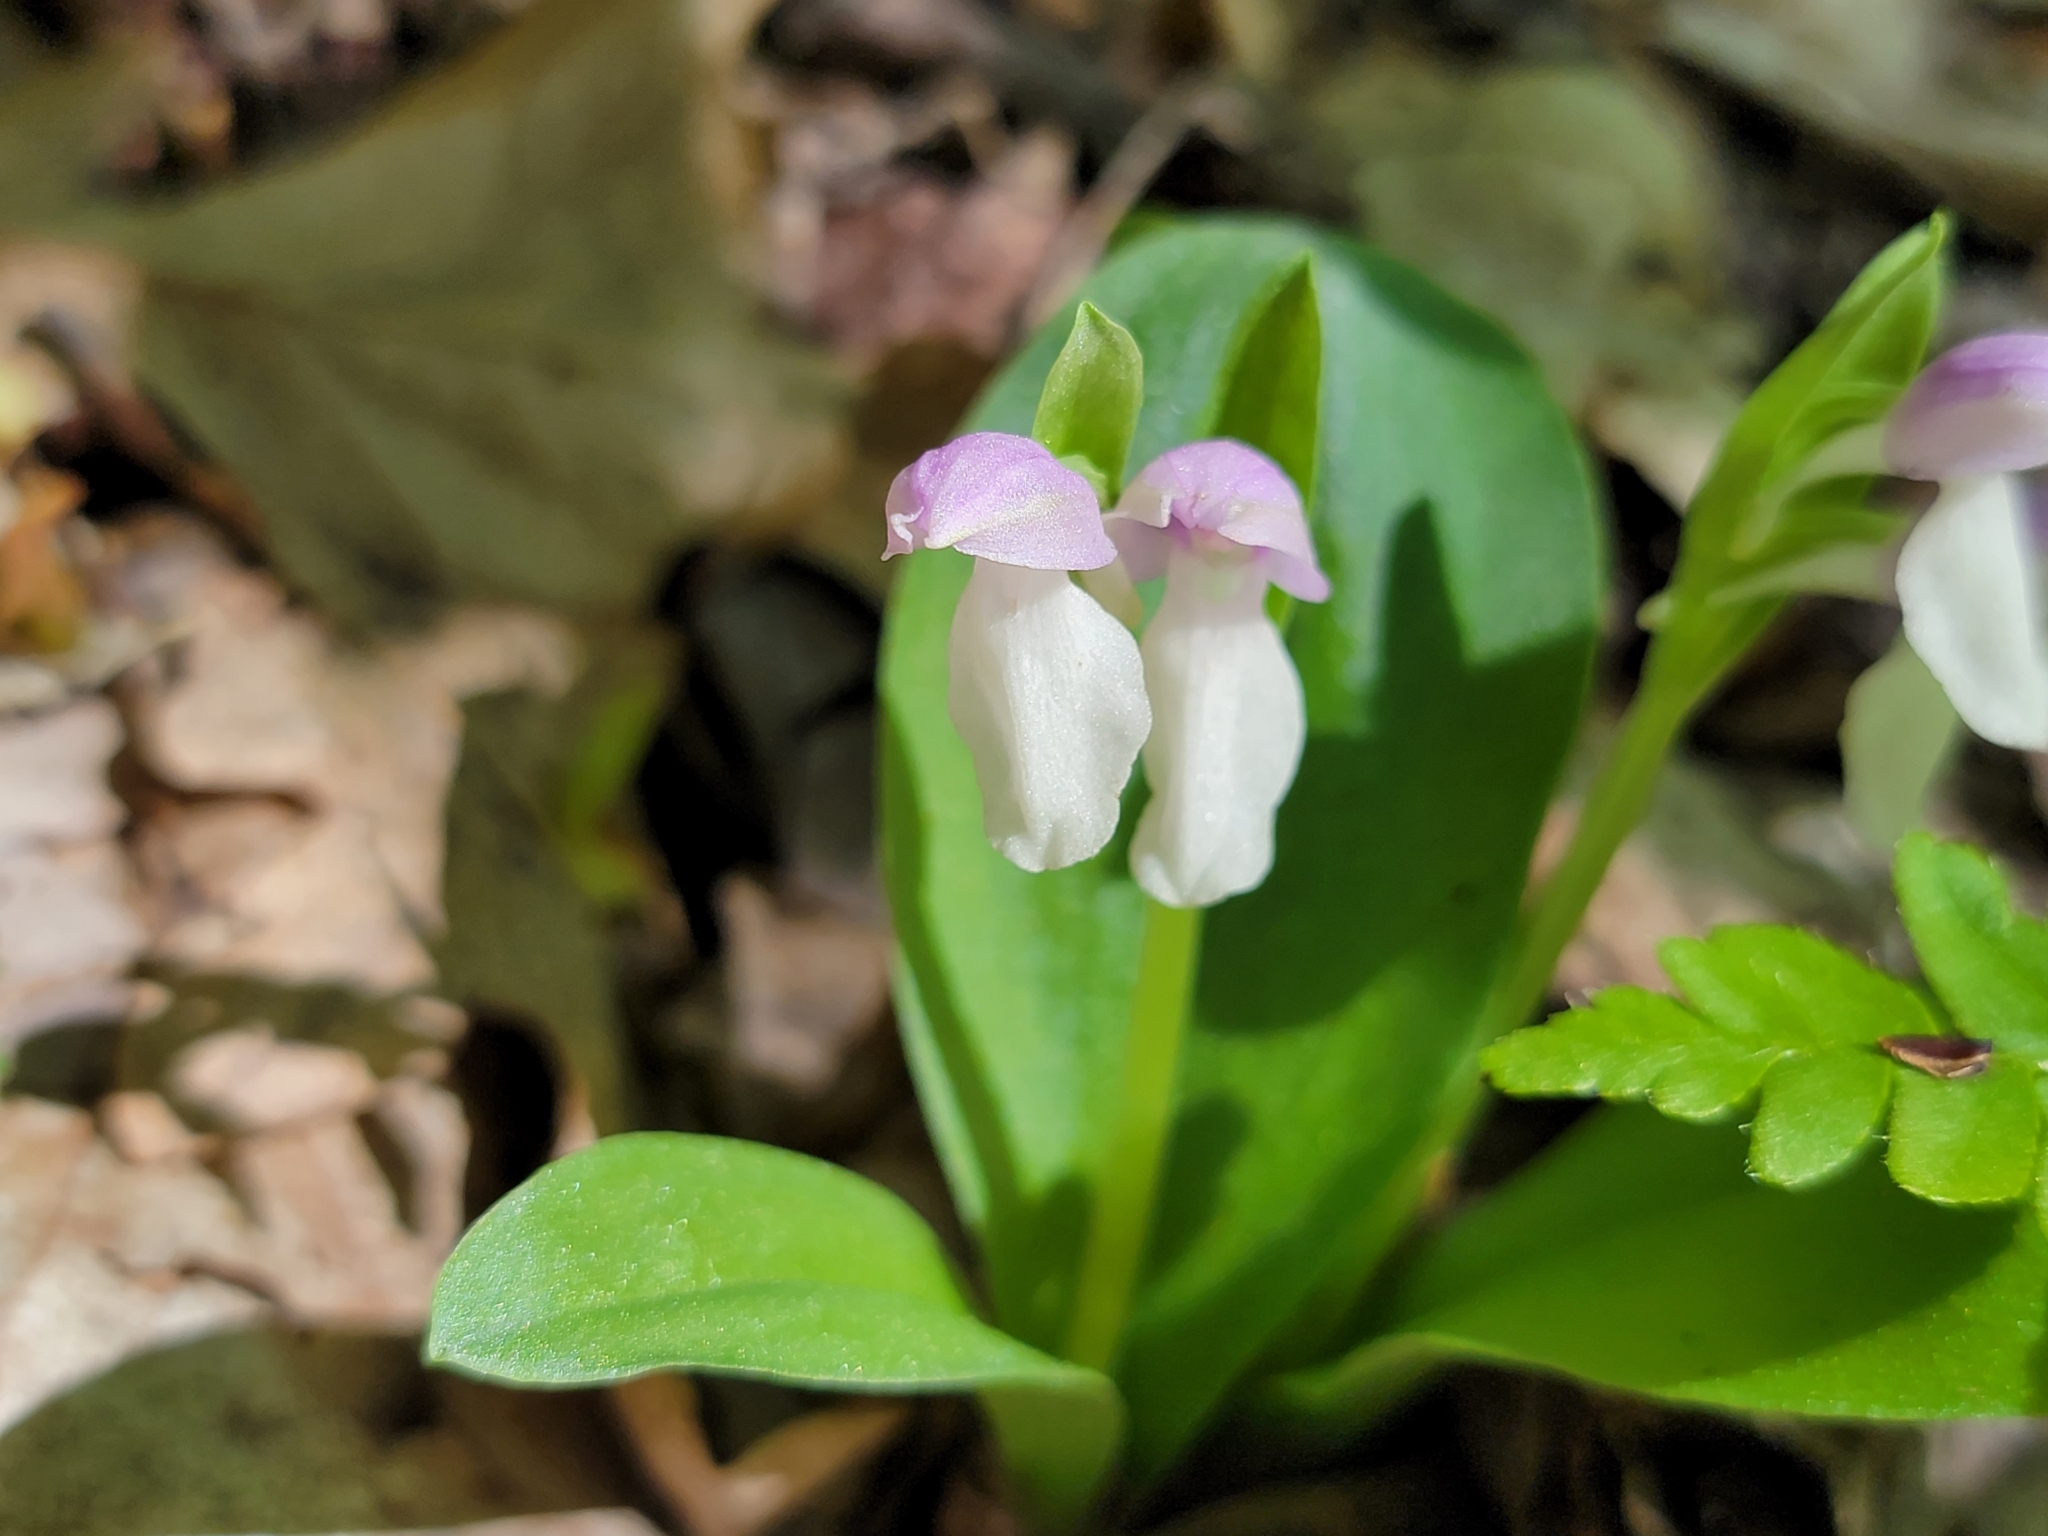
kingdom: Plantae
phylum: Tracheophyta
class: Liliopsida
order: Asparagales
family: Orchidaceae
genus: Galearis
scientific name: Galearis spectabilis
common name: Purple-hooded orchis
